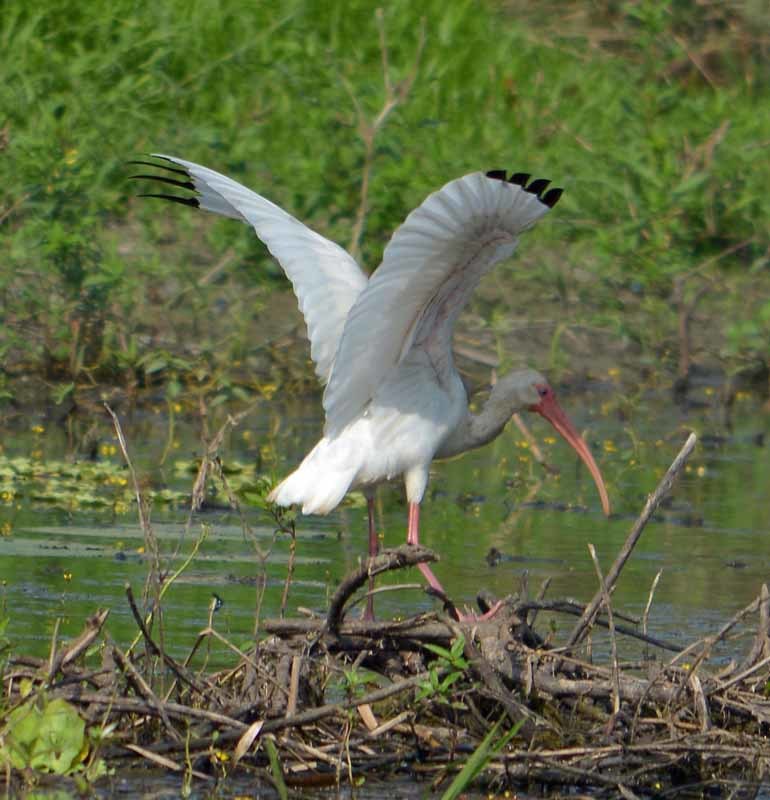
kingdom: Animalia
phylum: Chordata
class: Aves
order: Pelecaniformes
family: Threskiornithidae
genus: Eudocimus
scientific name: Eudocimus albus
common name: White ibis
